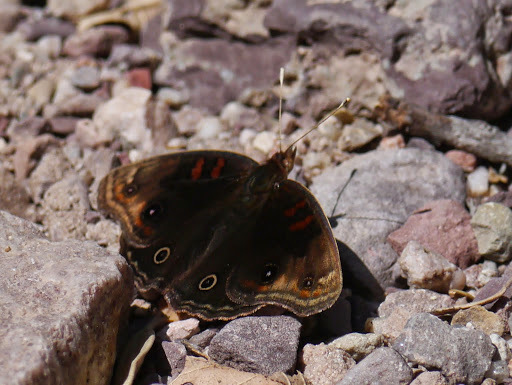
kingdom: Animalia
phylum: Arthropoda
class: Insecta
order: Lepidoptera
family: Nymphalidae
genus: Junonia
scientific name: Junonia nigrosuffusa
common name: Dark buckeye
